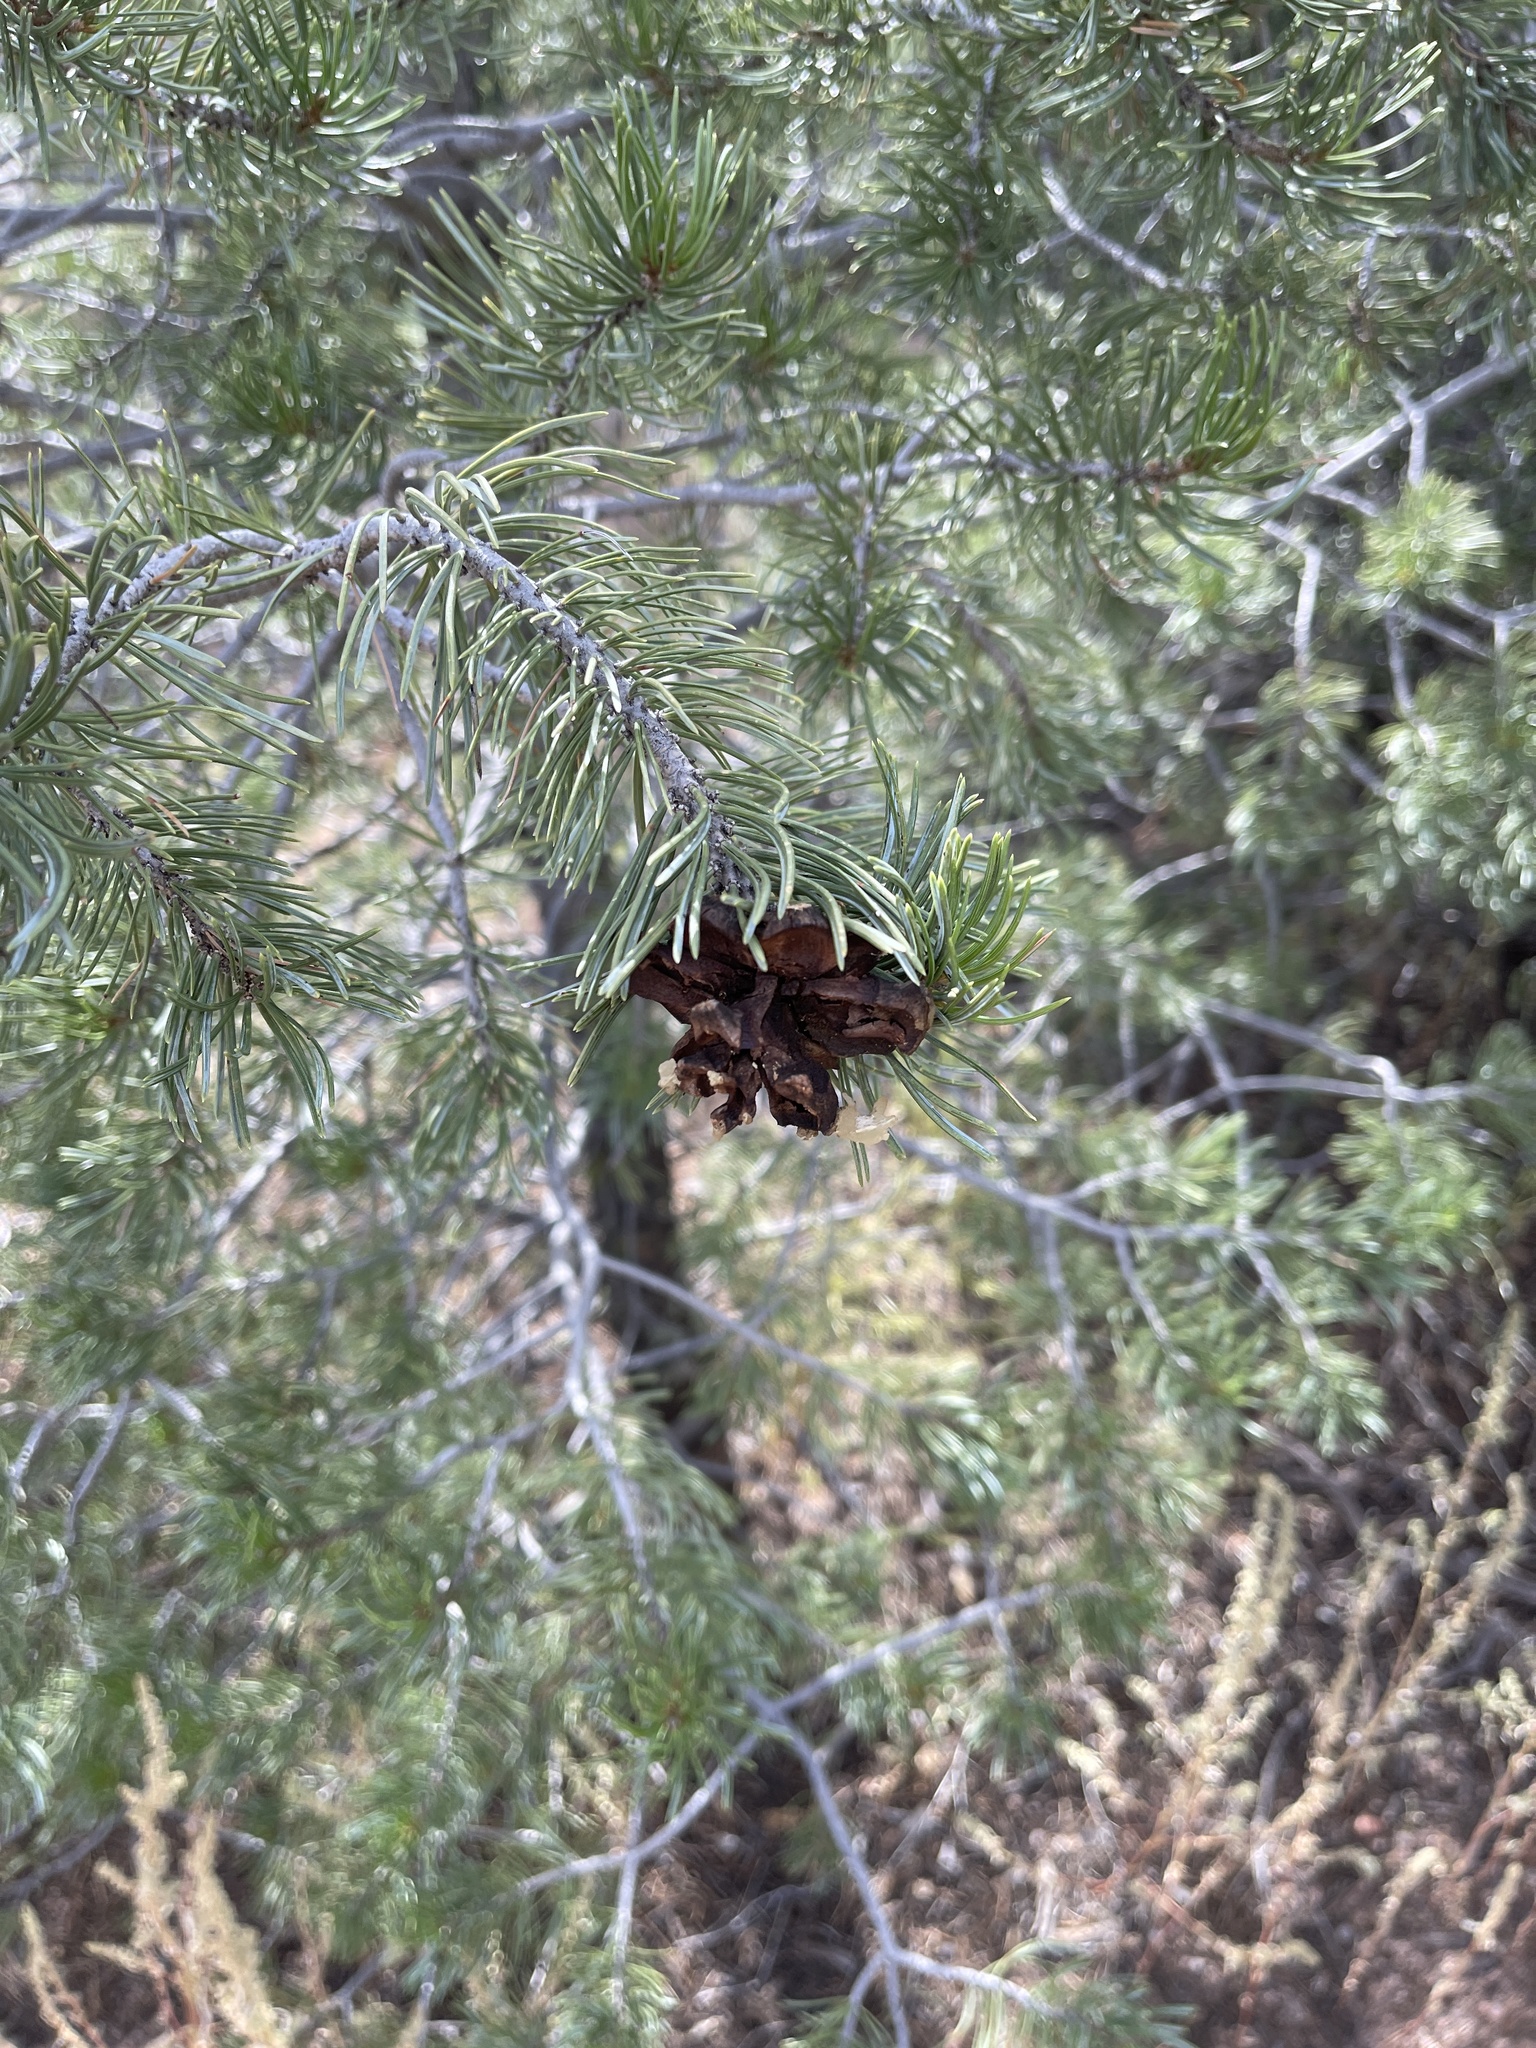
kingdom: Plantae
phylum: Tracheophyta
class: Pinopsida
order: Pinales
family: Pinaceae
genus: Pinus
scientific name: Pinus edulis
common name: Colorado pinyon
